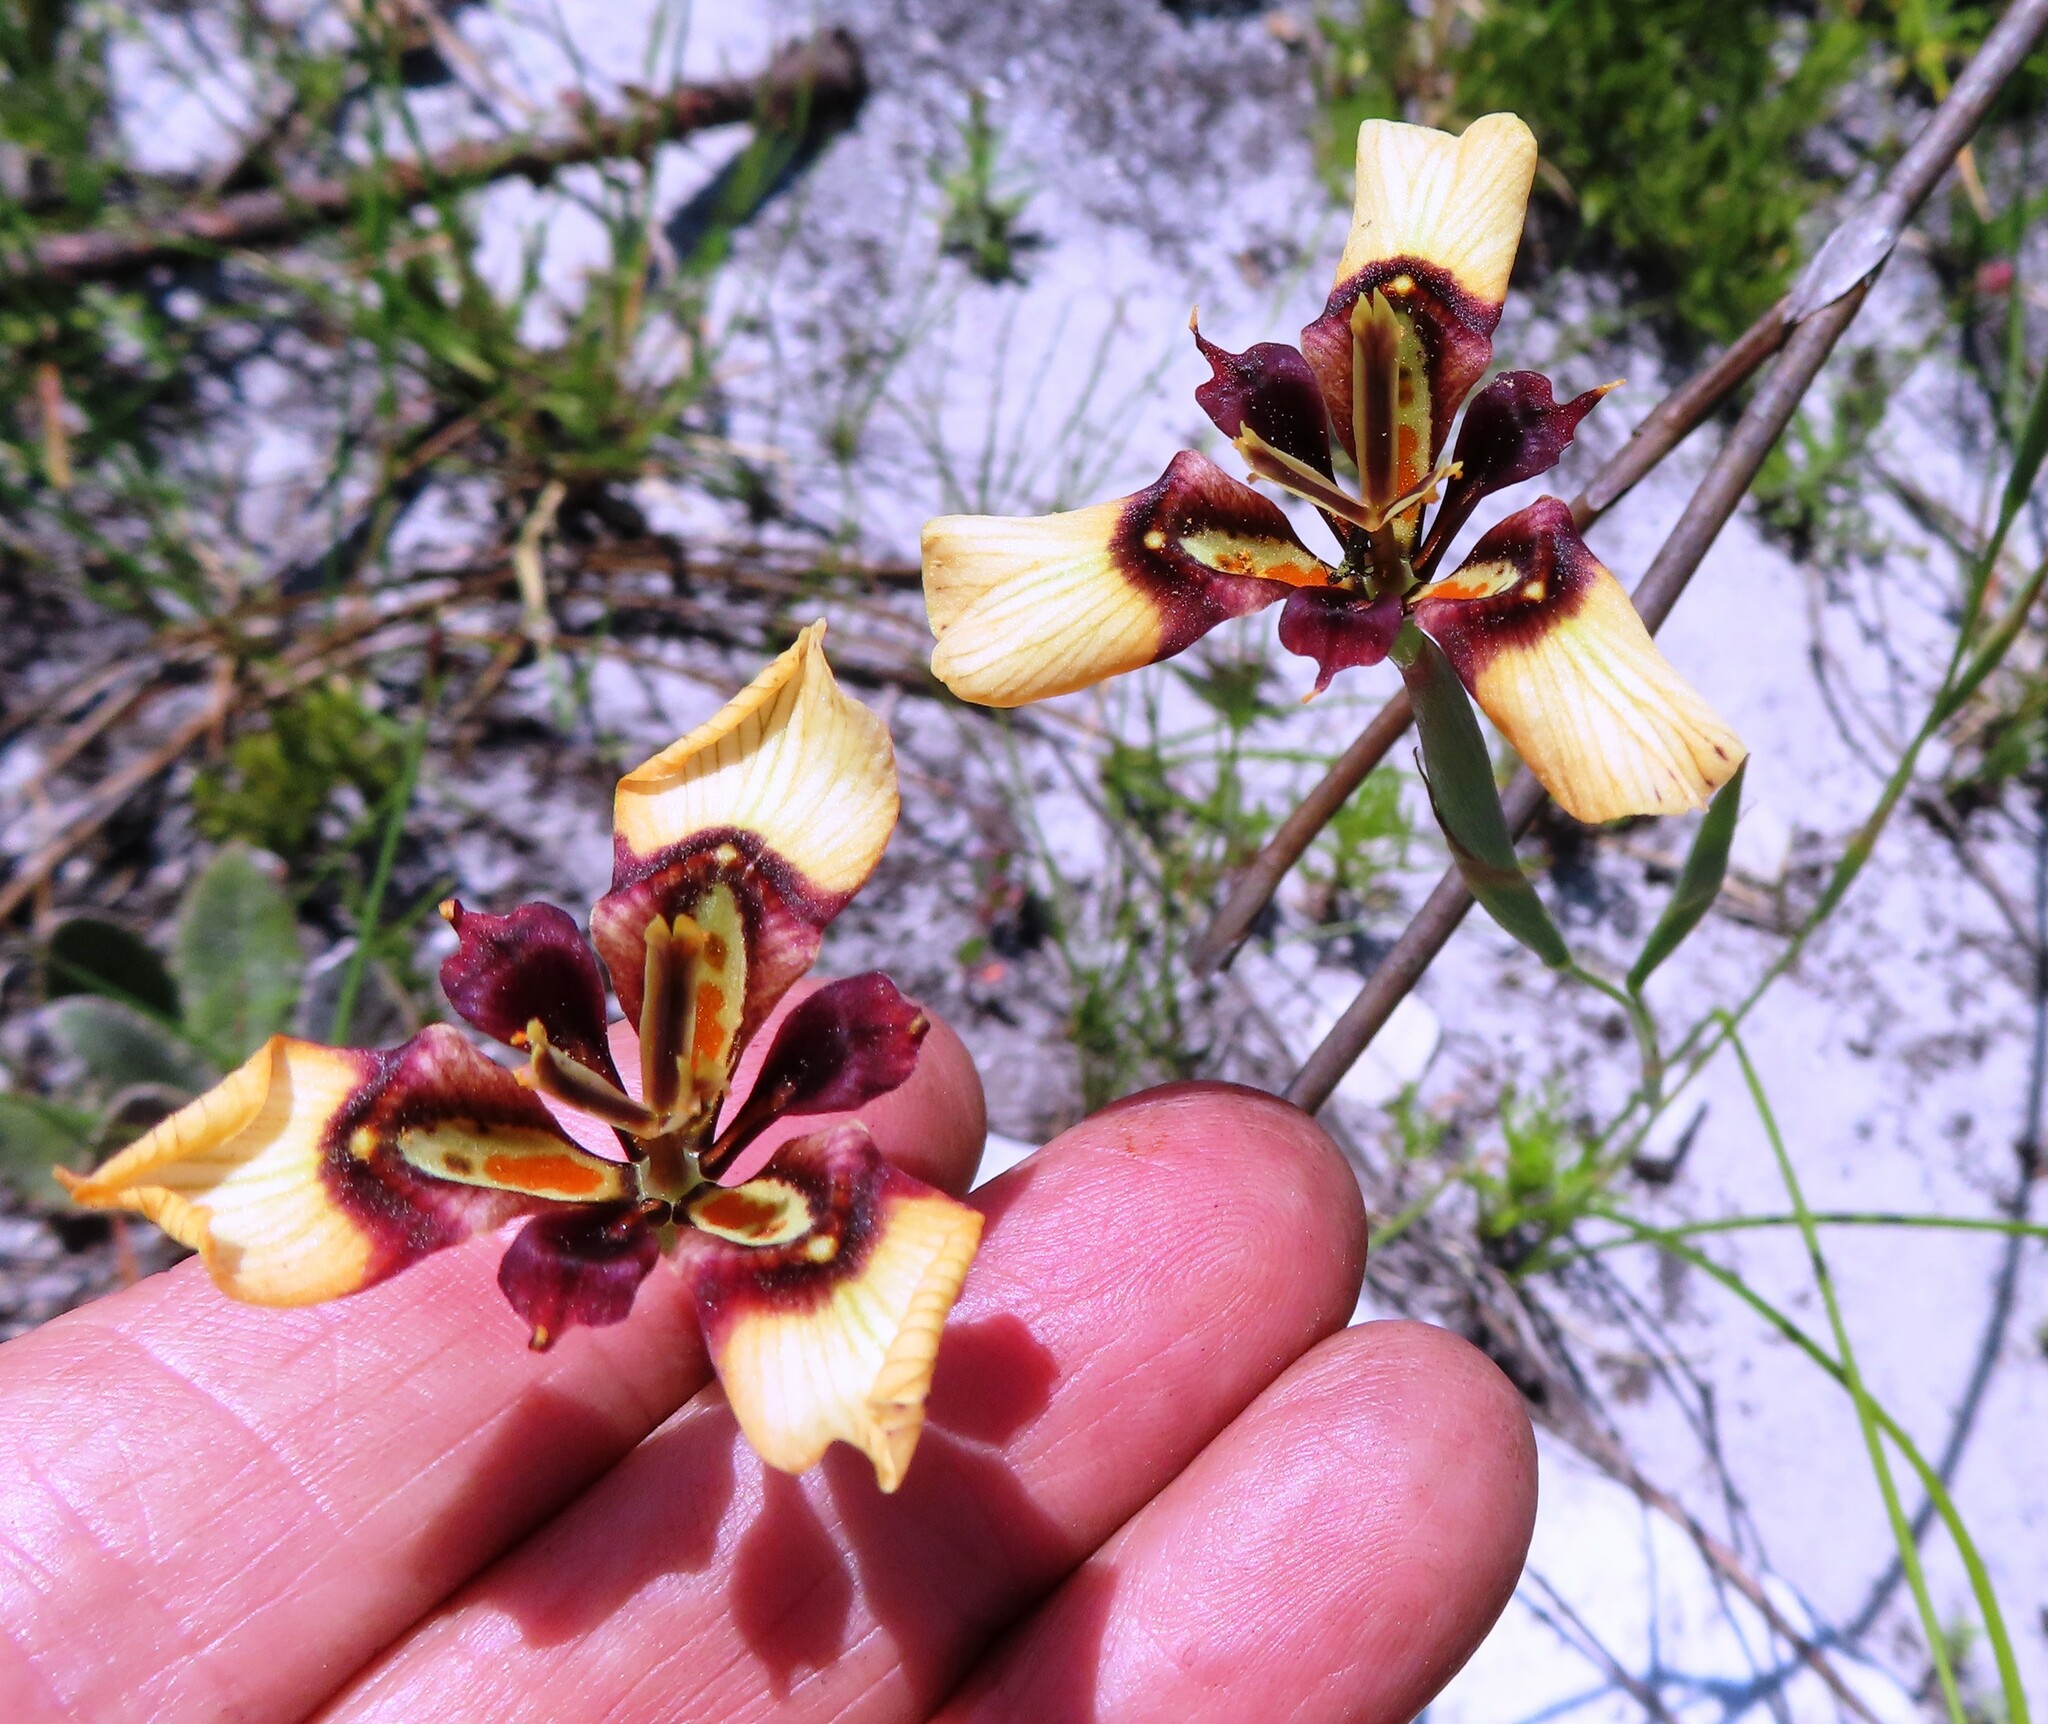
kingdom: Plantae
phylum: Tracheophyta
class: Liliopsida
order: Asparagales
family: Iridaceae
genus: Moraea
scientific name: Moraea lurida
